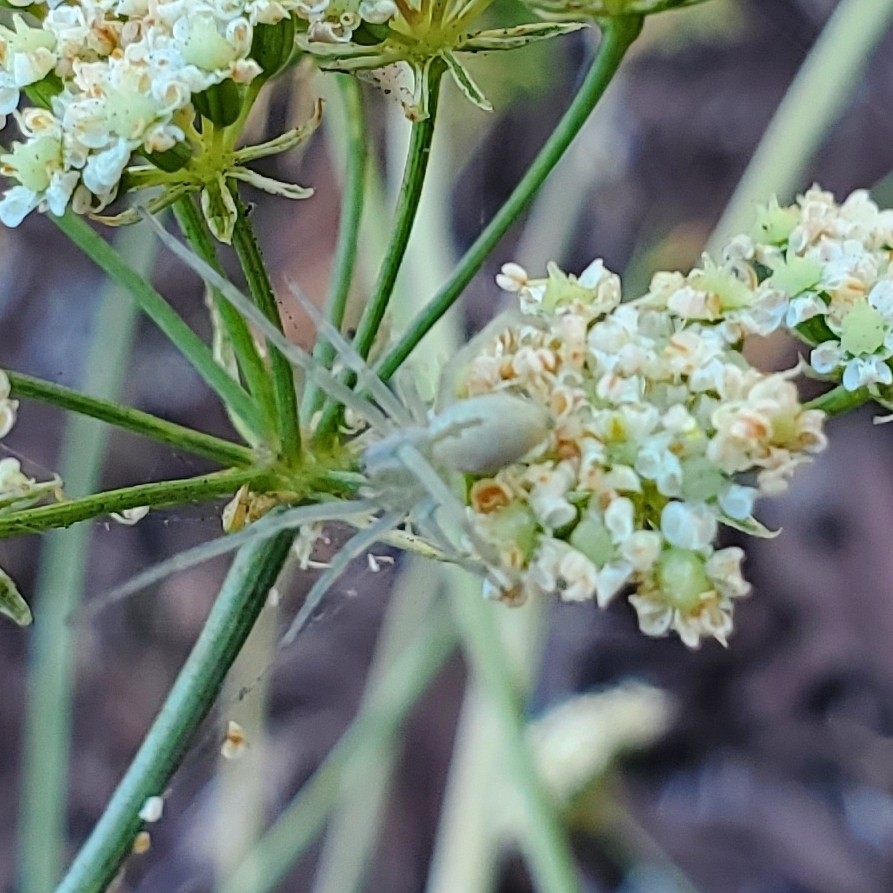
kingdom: Animalia
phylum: Arthropoda
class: Arachnida
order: Araneae
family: Cheiracanthiidae
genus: Cheiracanthium
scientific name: Cheiracanthium mildei
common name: Northern yellow sac spider
